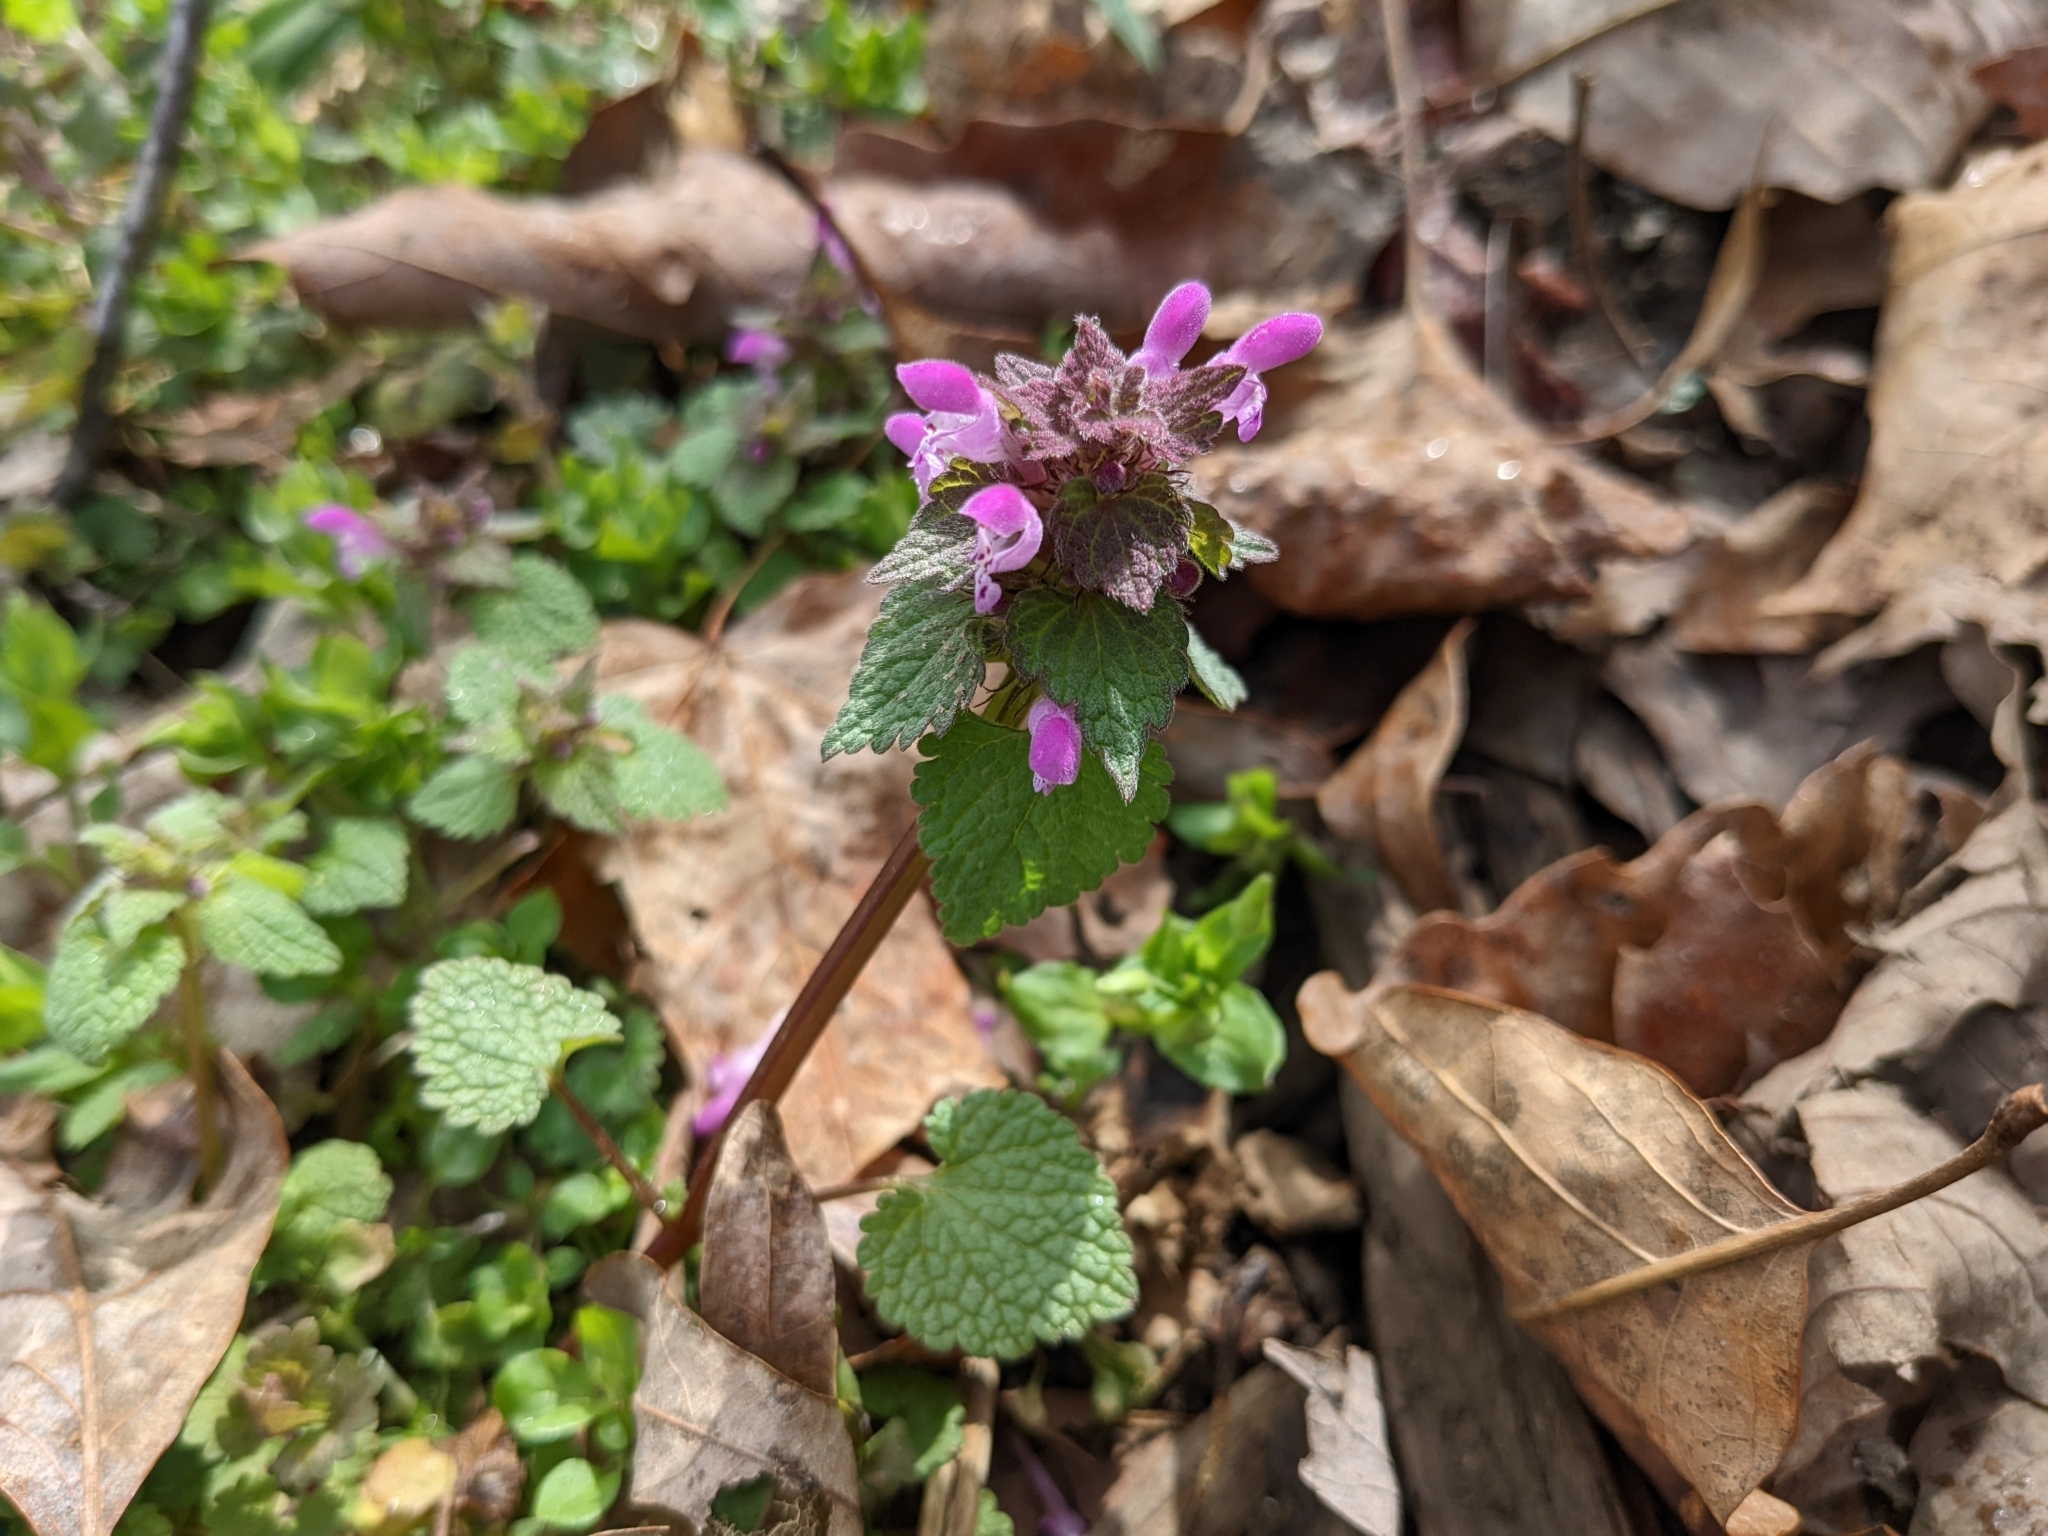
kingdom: Plantae
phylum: Tracheophyta
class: Magnoliopsida
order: Lamiales
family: Lamiaceae
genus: Lamium
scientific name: Lamium purpureum
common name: Red dead-nettle
